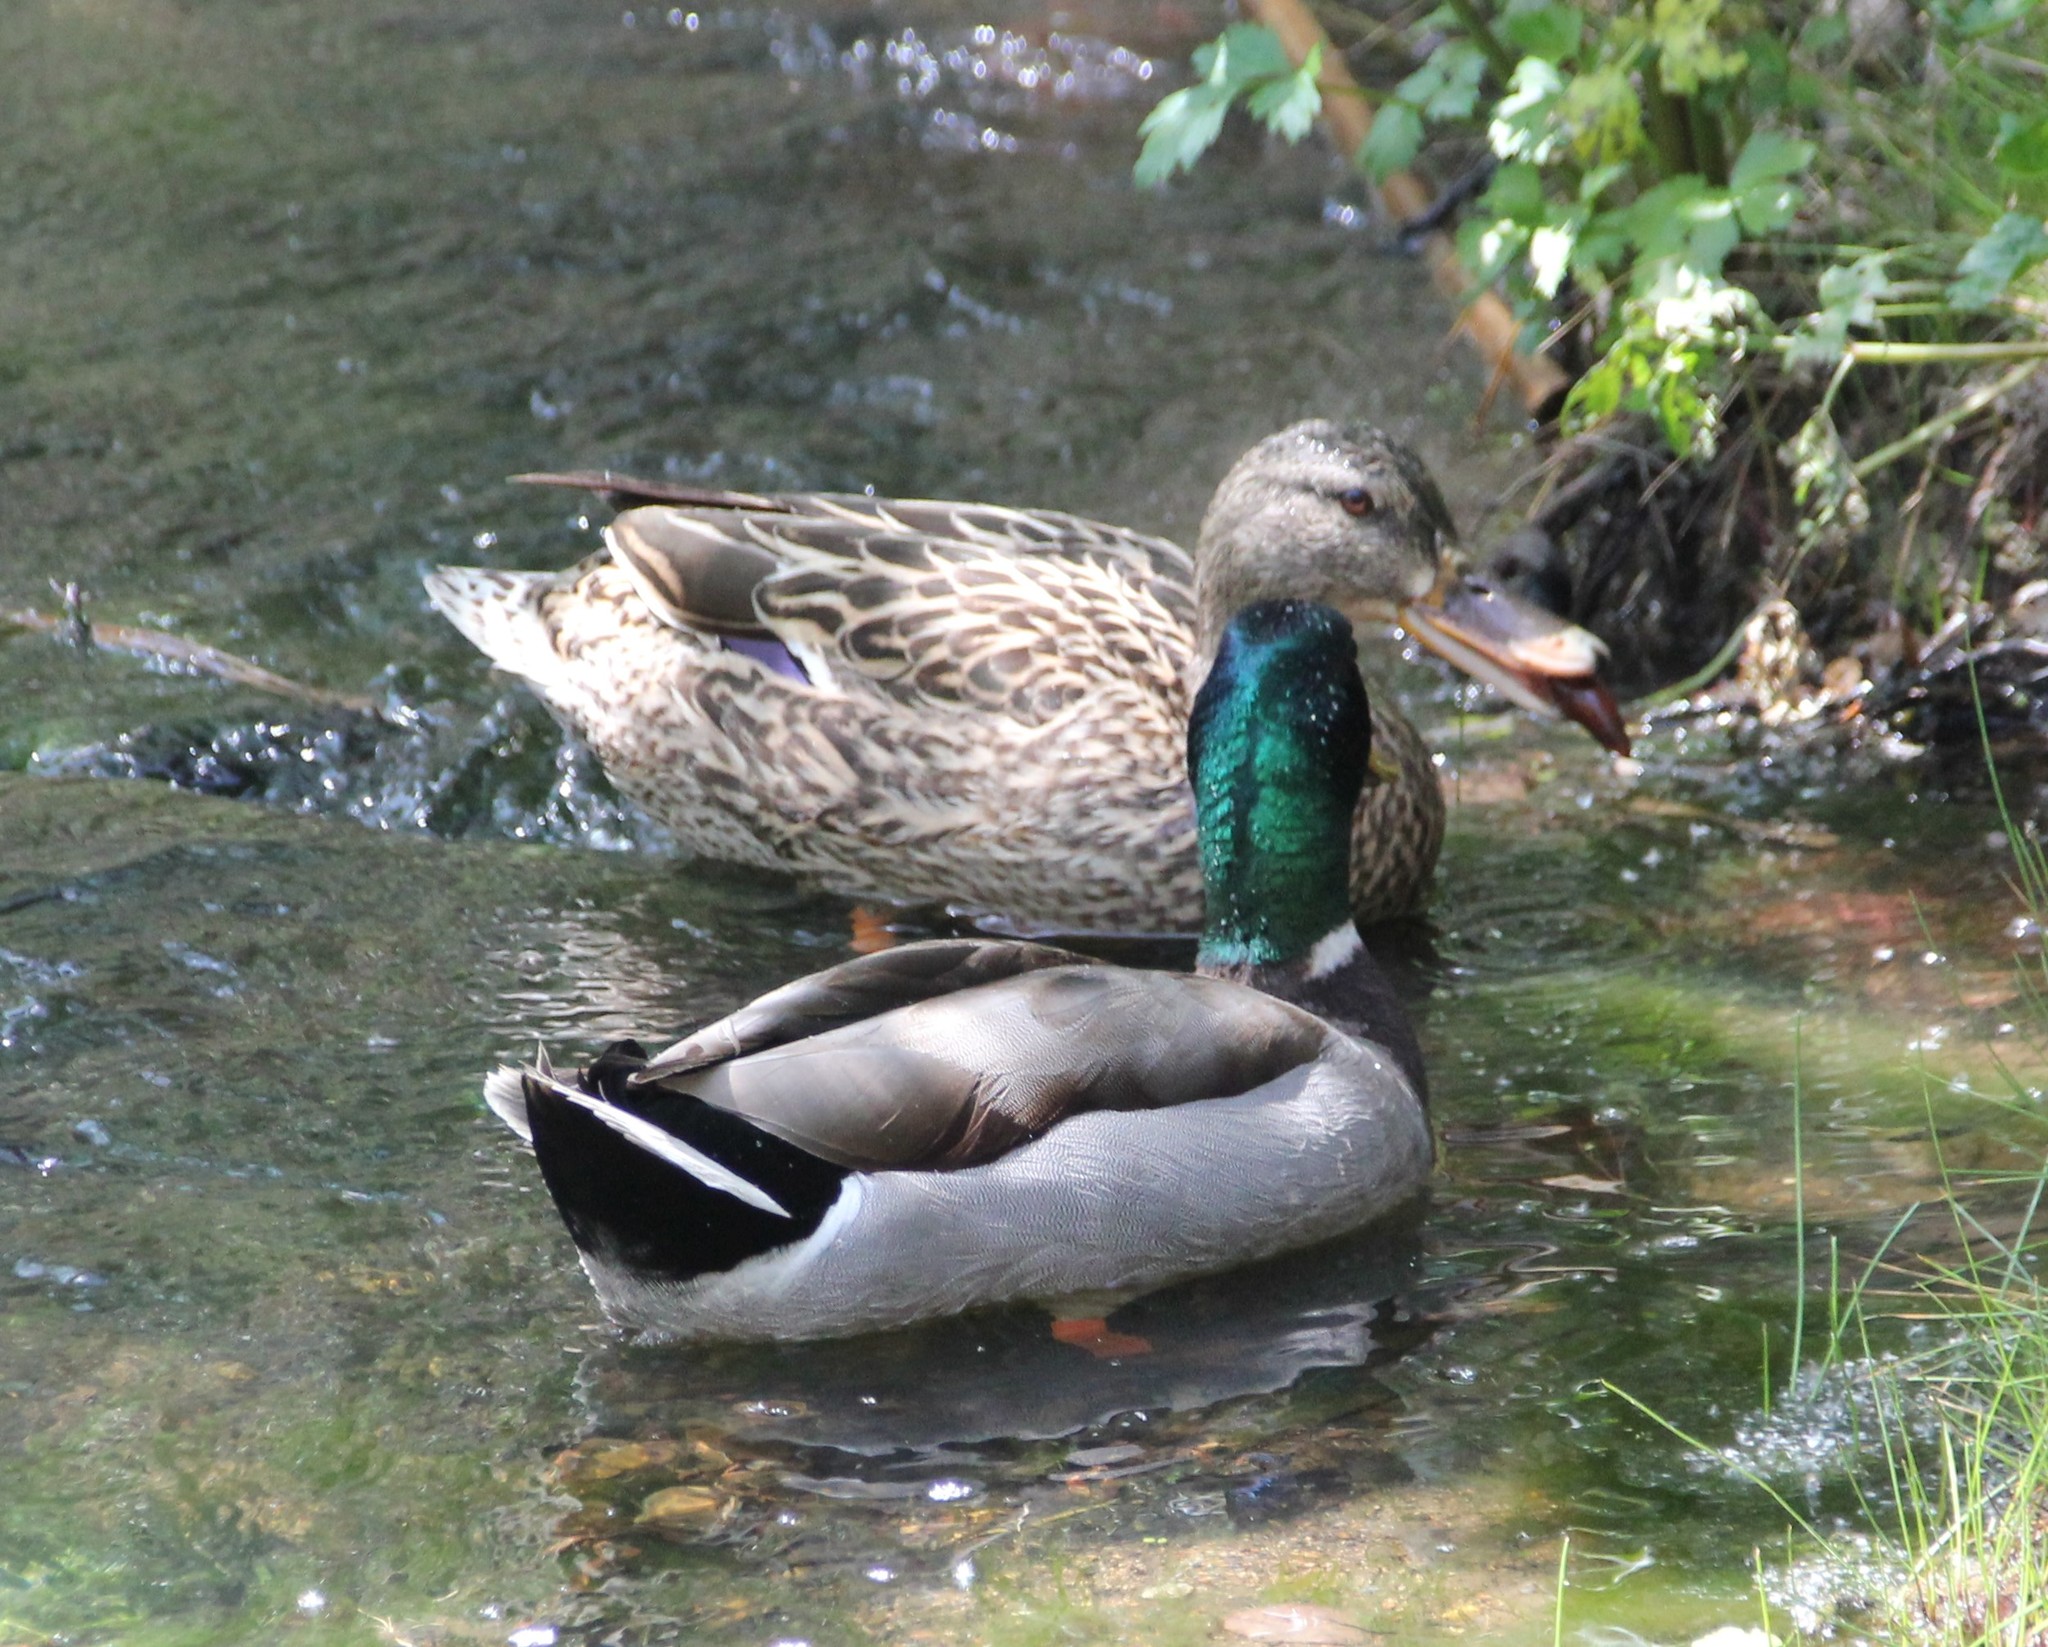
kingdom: Animalia
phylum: Chordata
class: Aves
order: Anseriformes
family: Anatidae
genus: Anas
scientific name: Anas platyrhynchos
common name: Mallard
